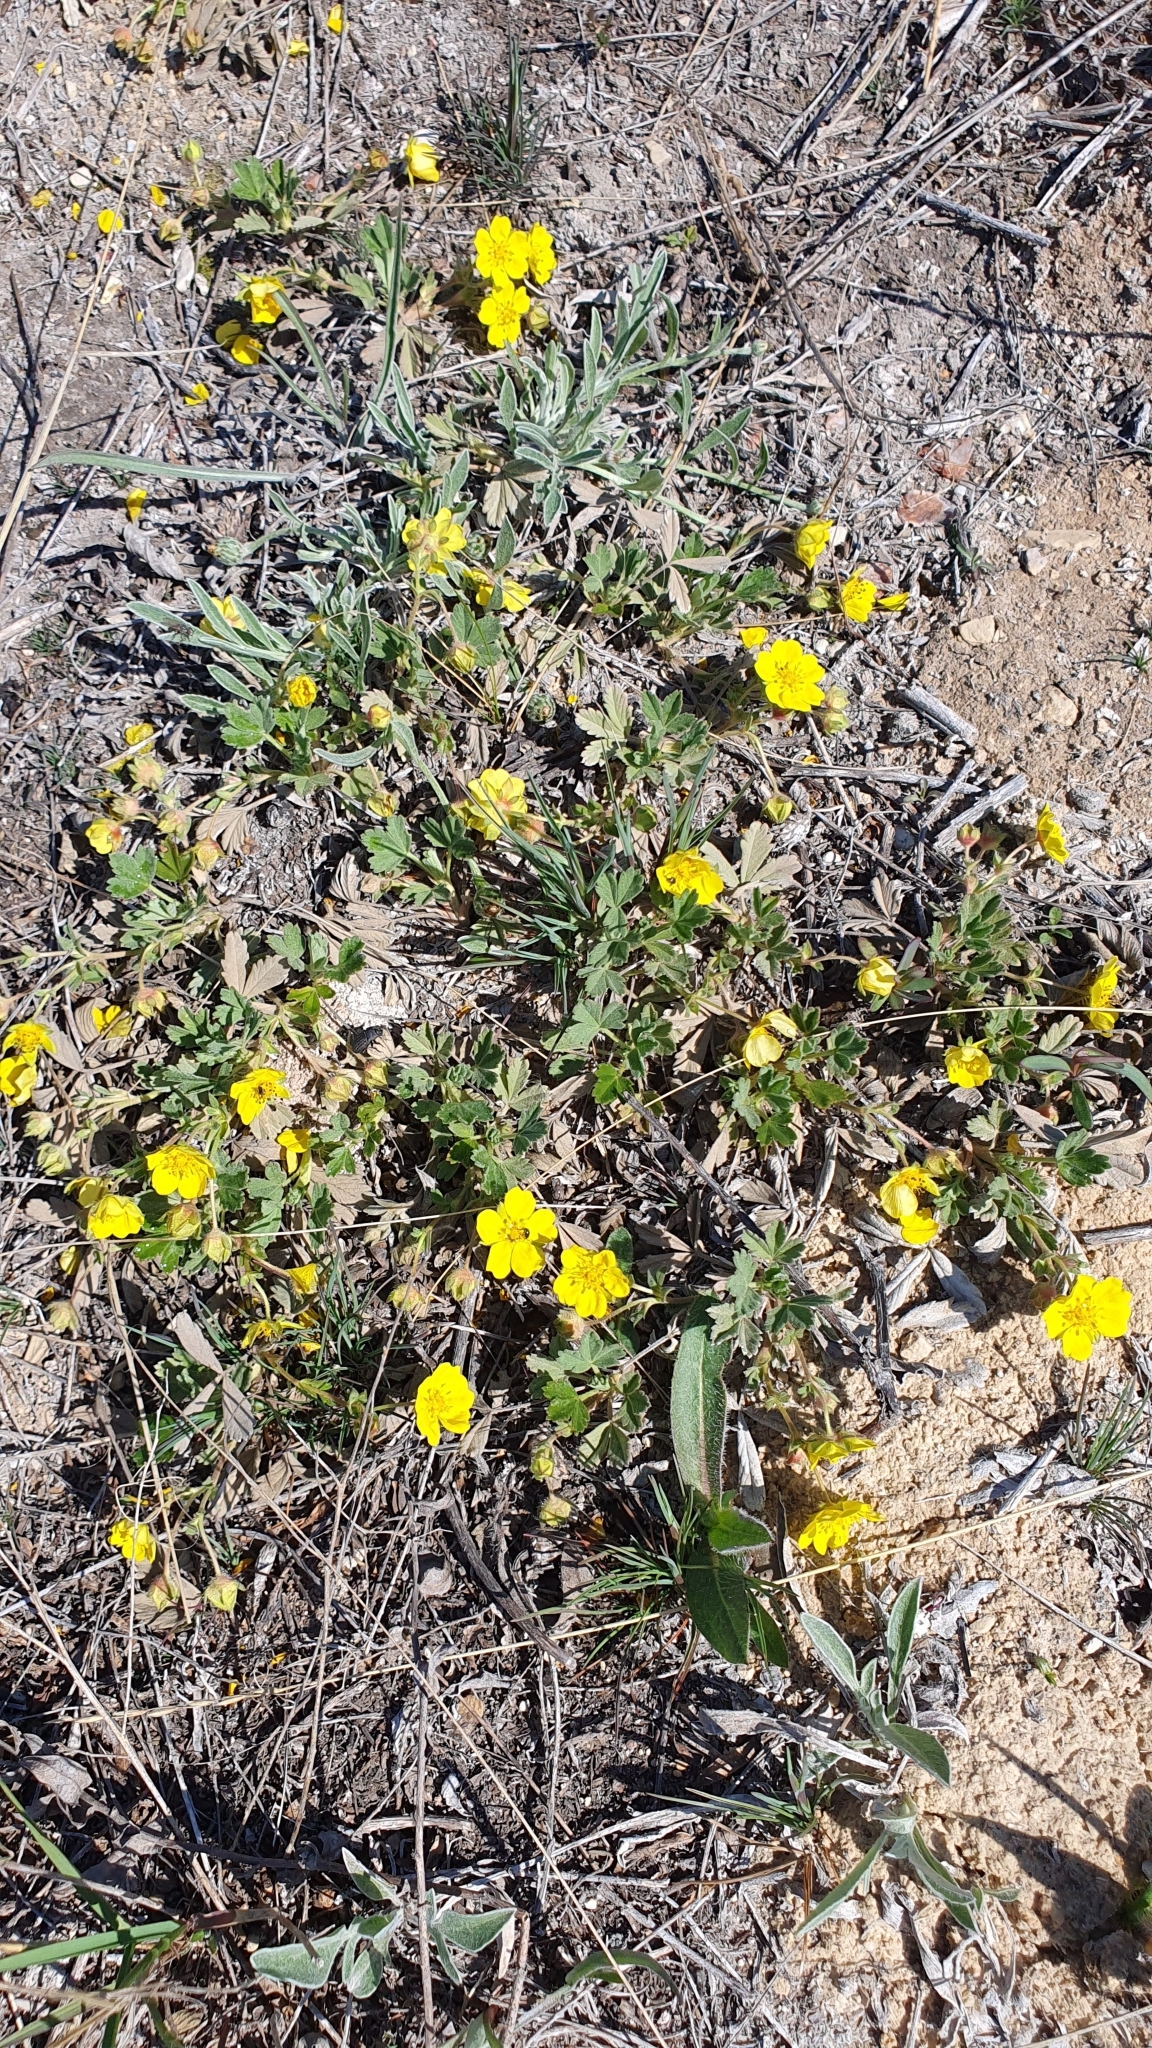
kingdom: Plantae
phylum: Tracheophyta
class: Magnoliopsida
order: Rosales
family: Rosaceae
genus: Potentilla
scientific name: Potentilla incana
